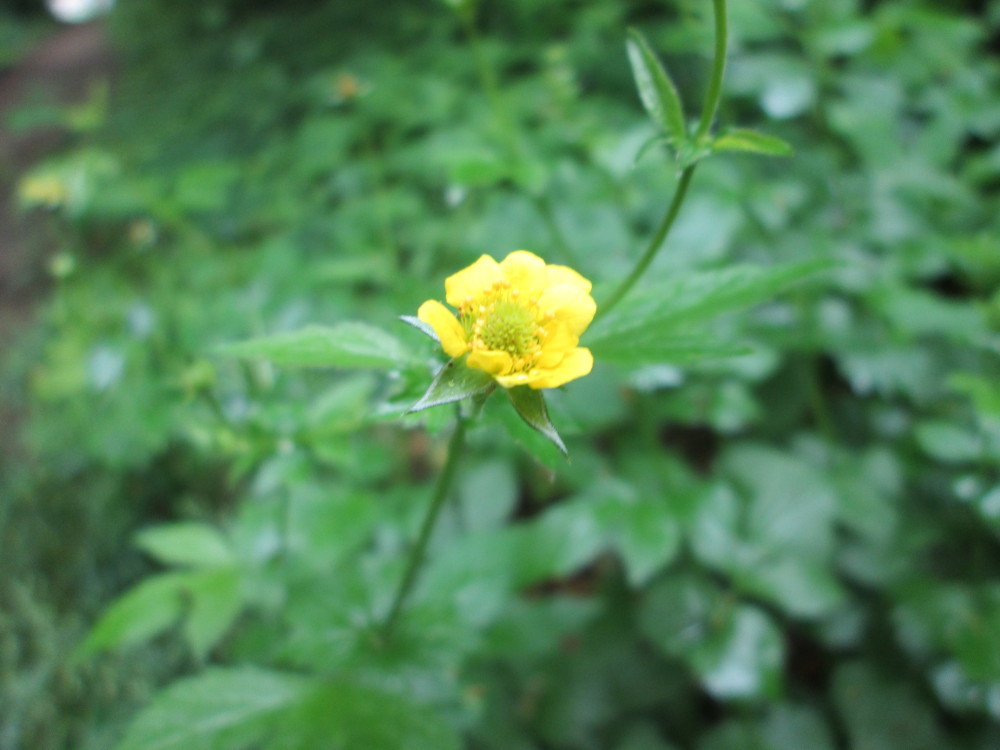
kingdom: Plantae
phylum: Tracheophyta
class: Magnoliopsida
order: Rosales
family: Rosaceae
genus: Geum
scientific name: Geum urbanum
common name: Wood avens
